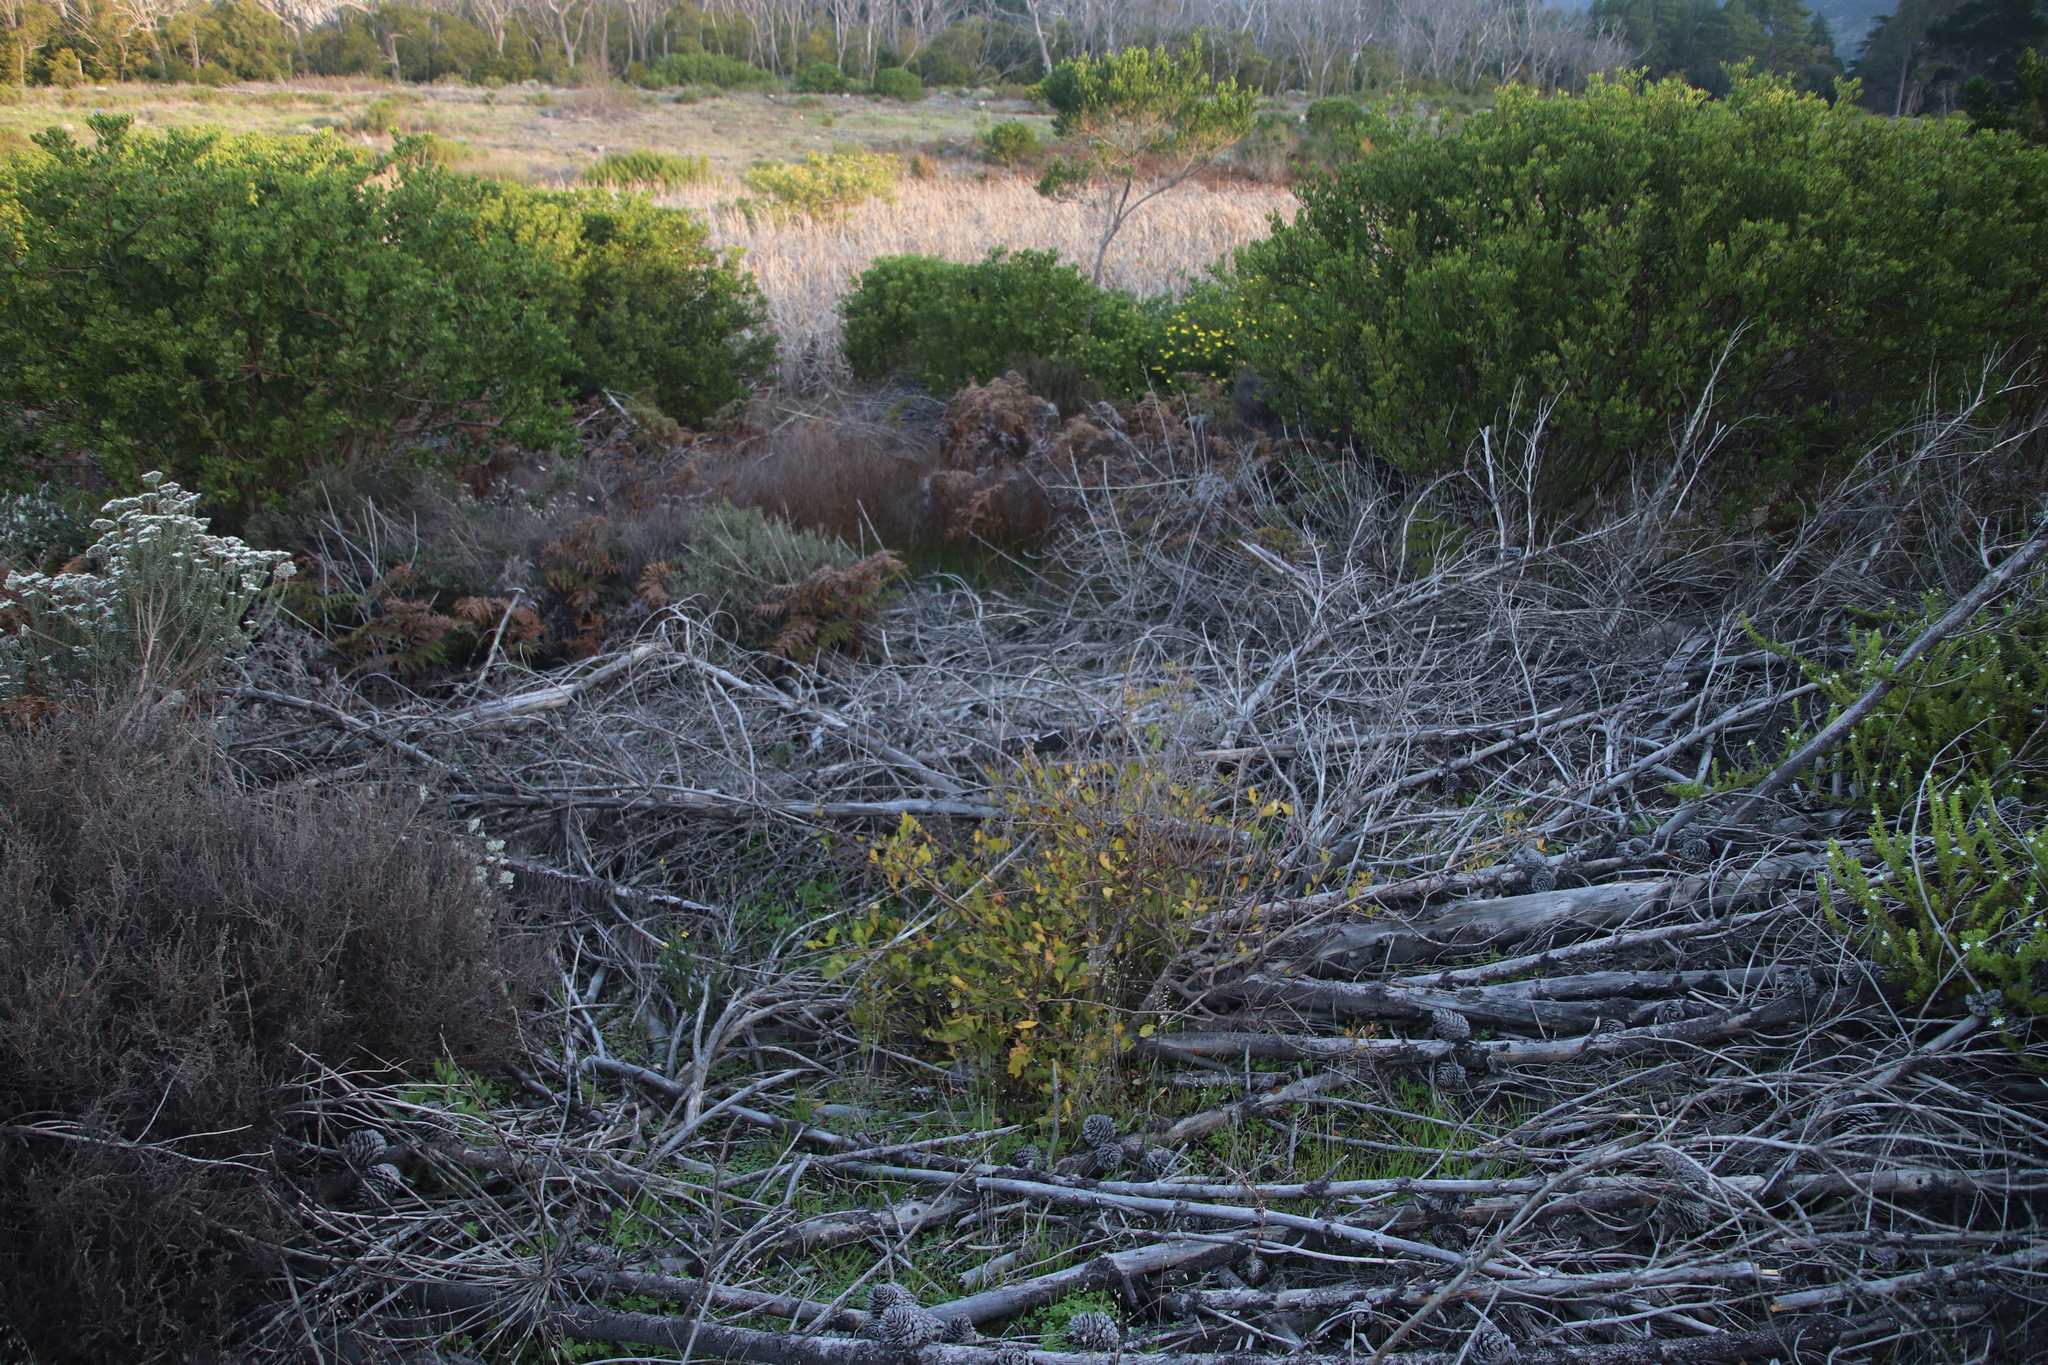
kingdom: Plantae
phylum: Tracheophyta
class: Magnoliopsida
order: Sapindales
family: Anacardiaceae
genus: Searsia
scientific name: Searsia laevigata
